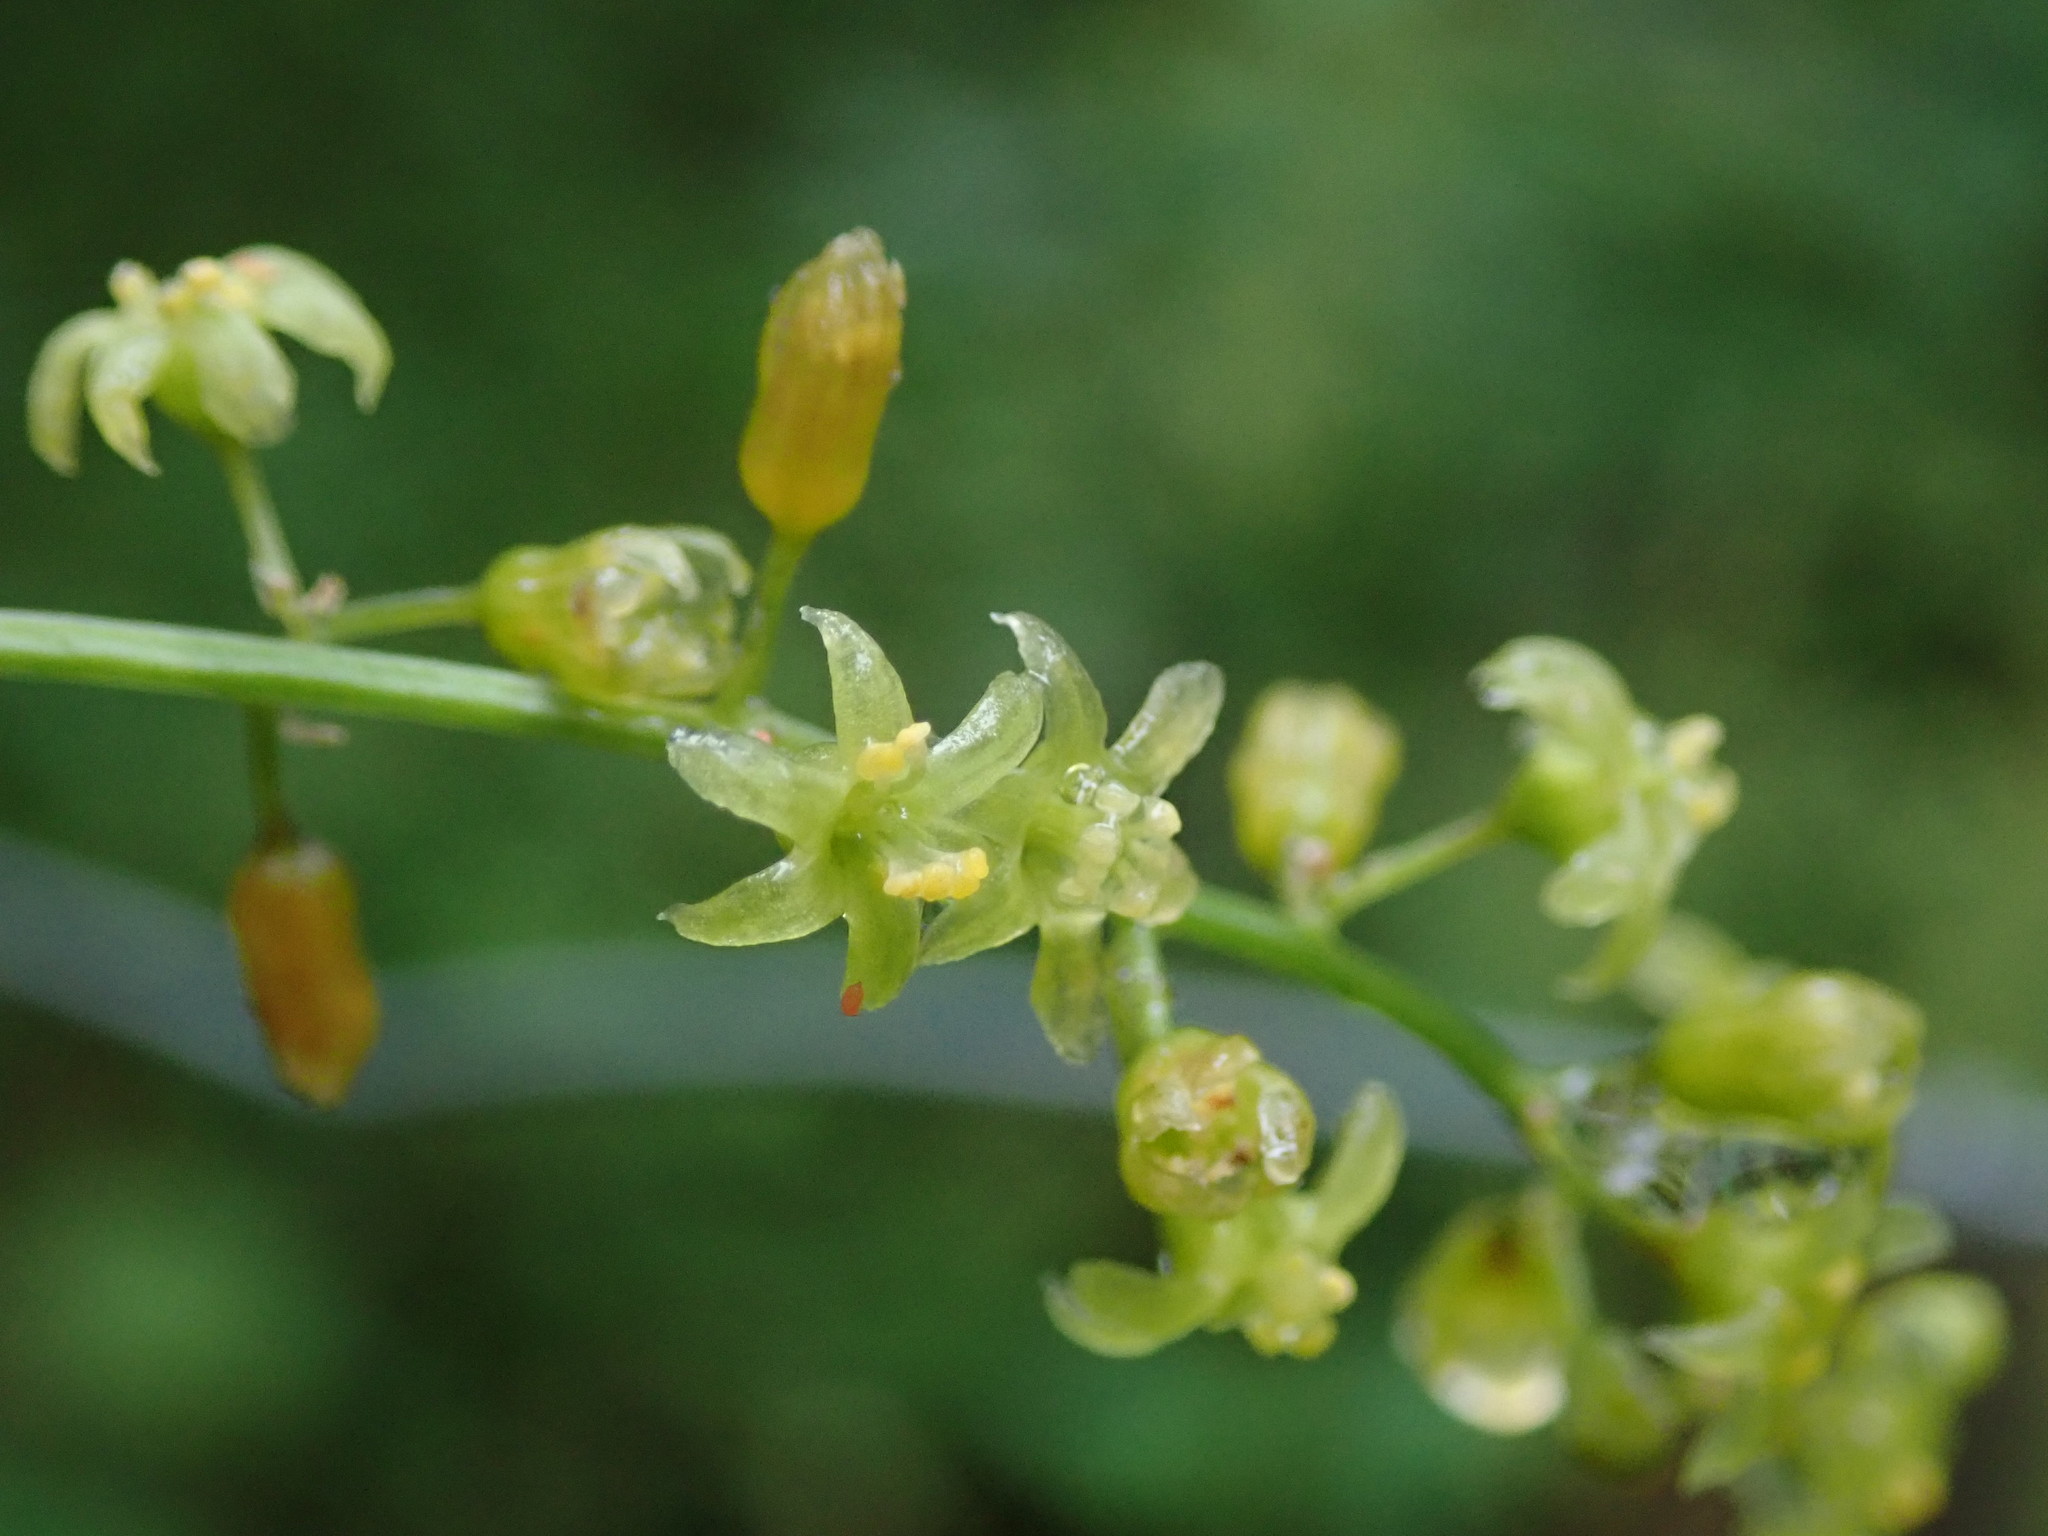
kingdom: Plantae
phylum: Tracheophyta
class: Liliopsida
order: Dioscoreales
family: Dioscoreaceae
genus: Dioscorea
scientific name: Dioscorea communis
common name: Black-bindweed
